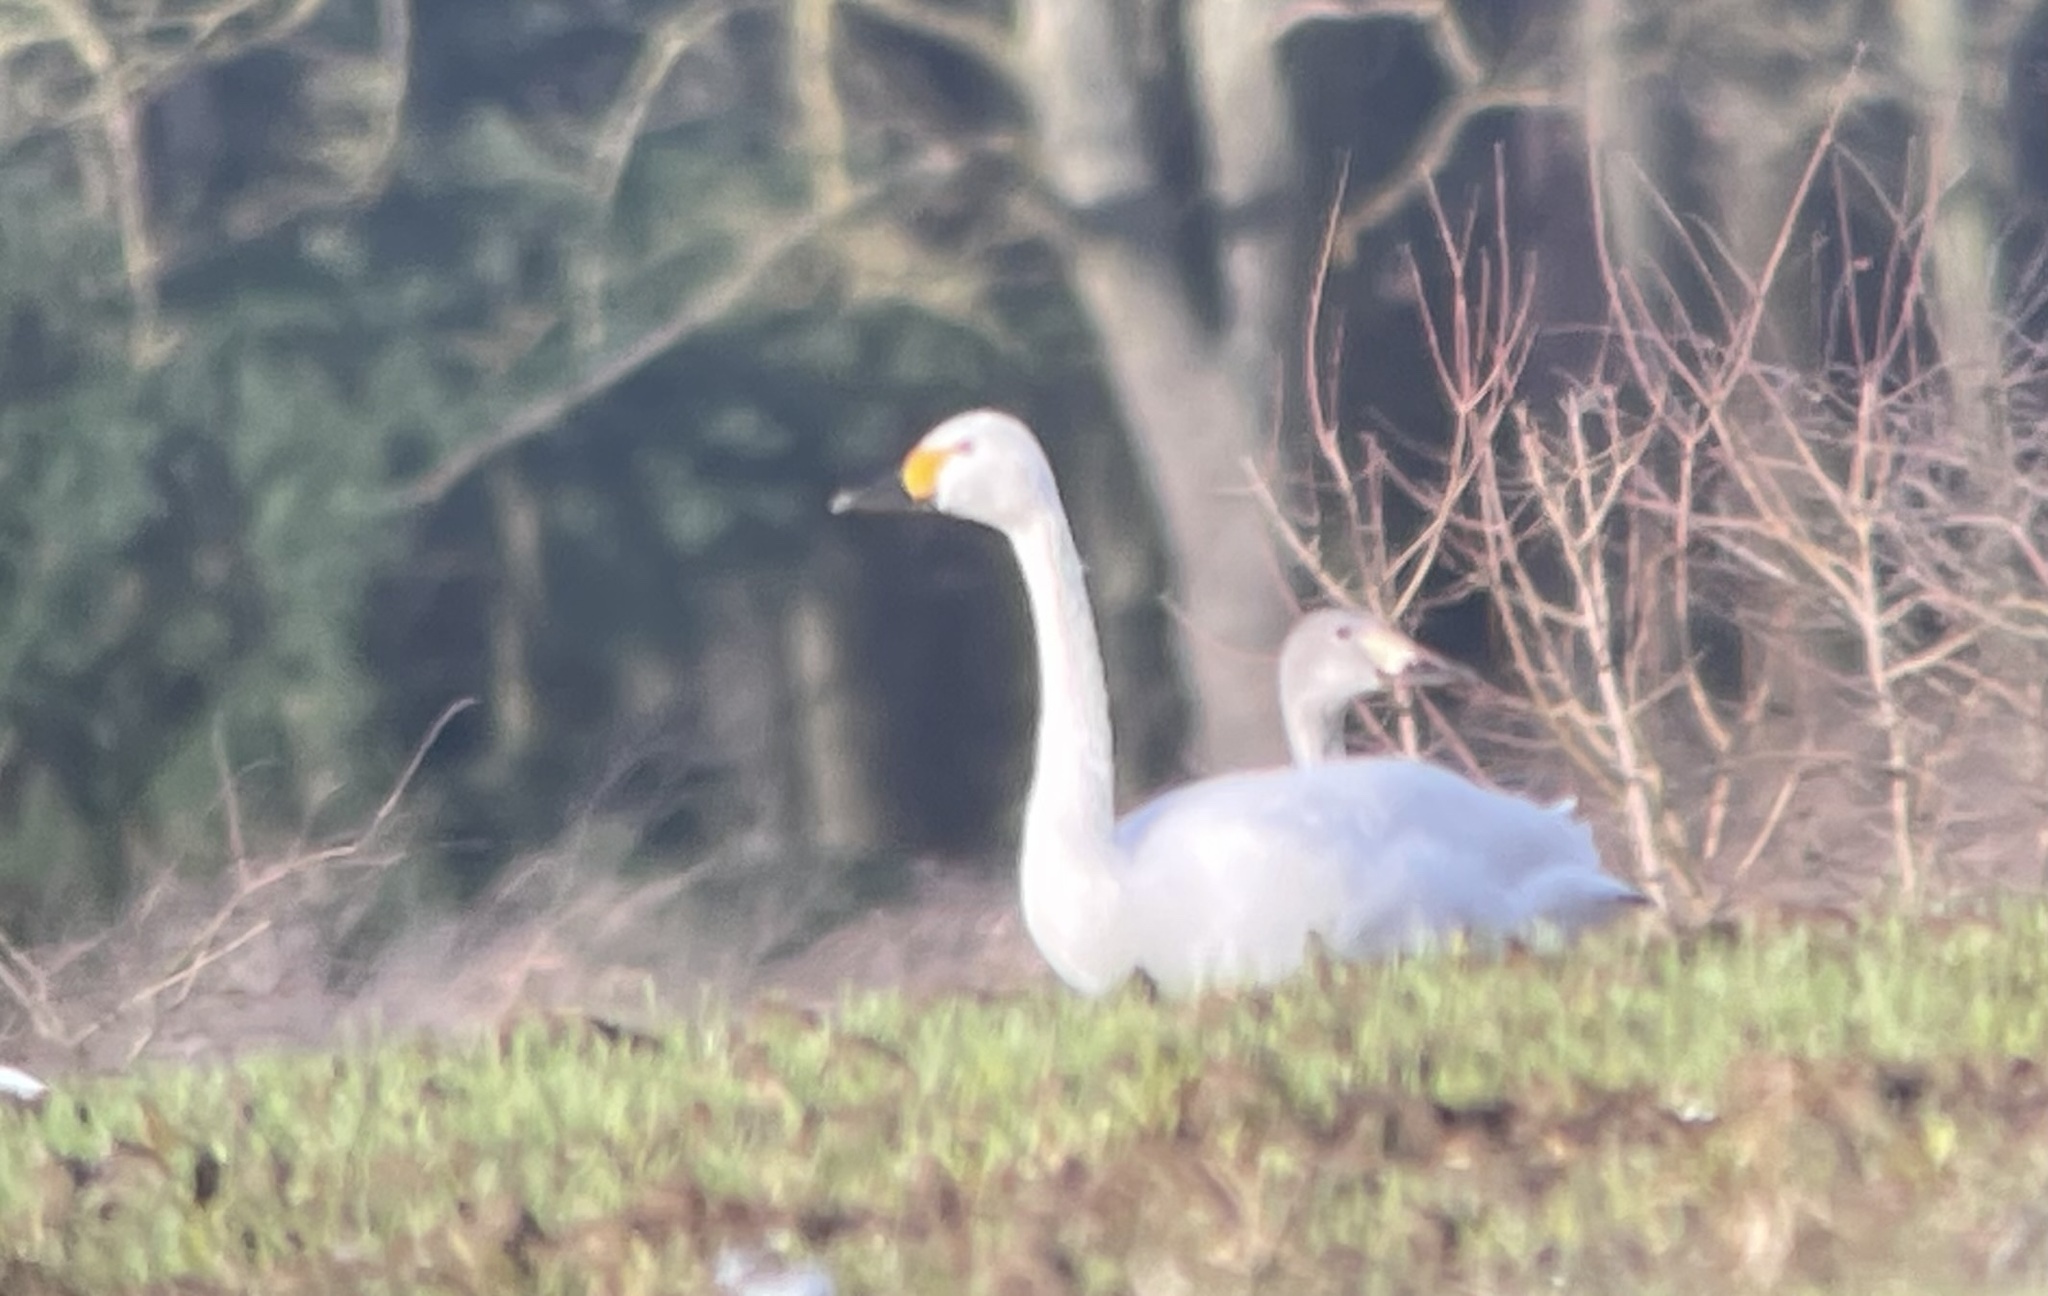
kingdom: Animalia
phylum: Chordata
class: Aves
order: Anseriformes
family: Anatidae
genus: Cygnus
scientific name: Cygnus columbianus
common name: Tundra swan
